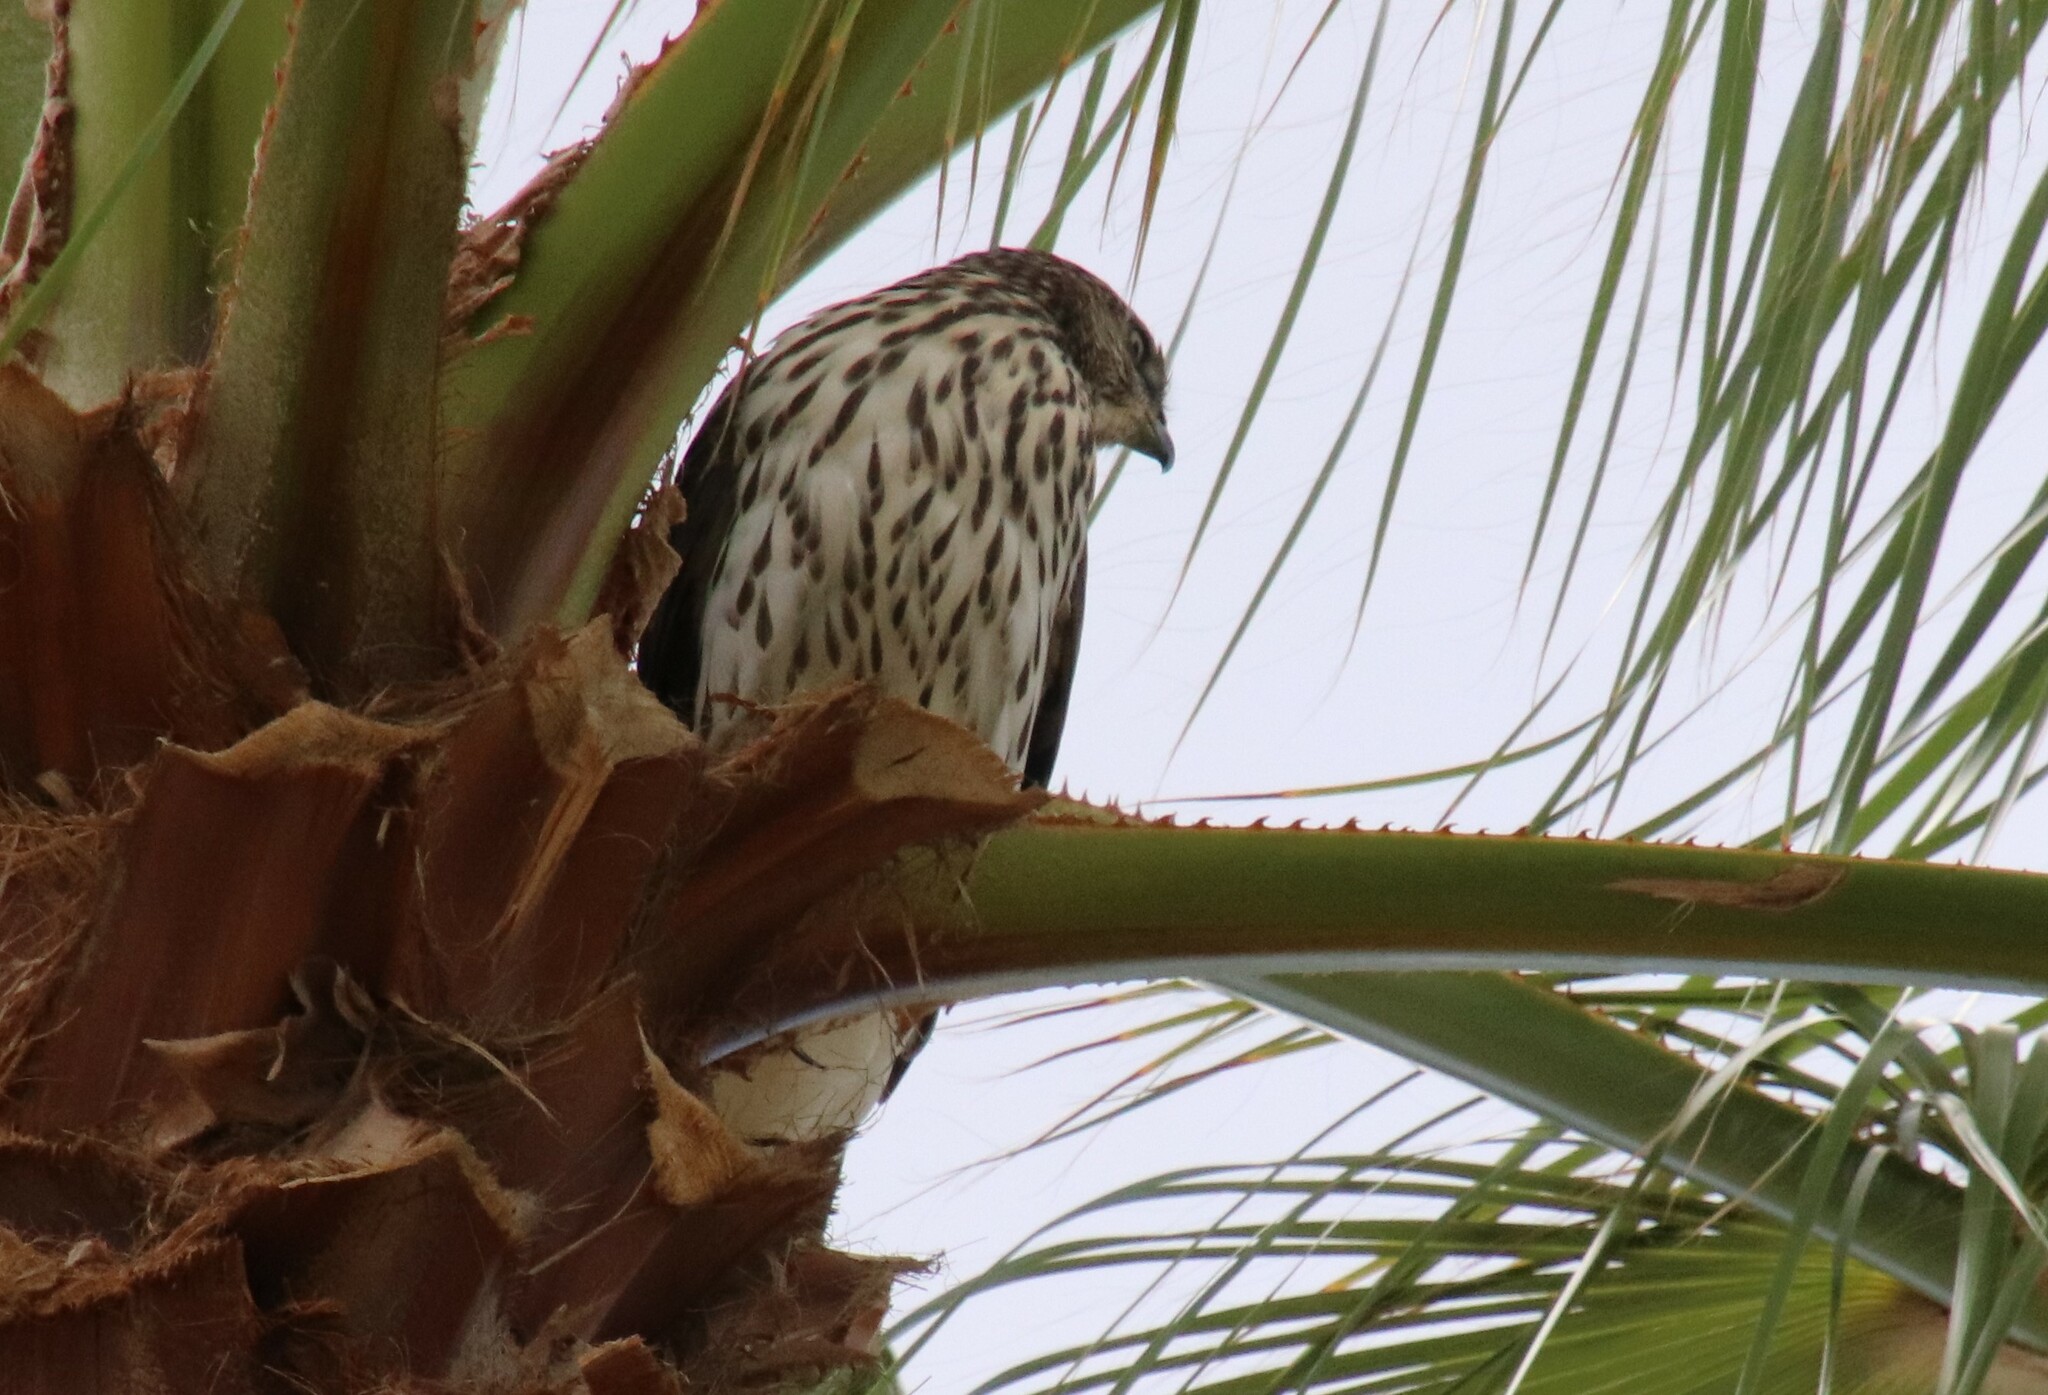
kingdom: Animalia
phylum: Chordata
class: Aves
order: Accipitriformes
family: Accipitridae
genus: Accipiter
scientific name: Accipiter cooperii
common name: Cooper's hawk
